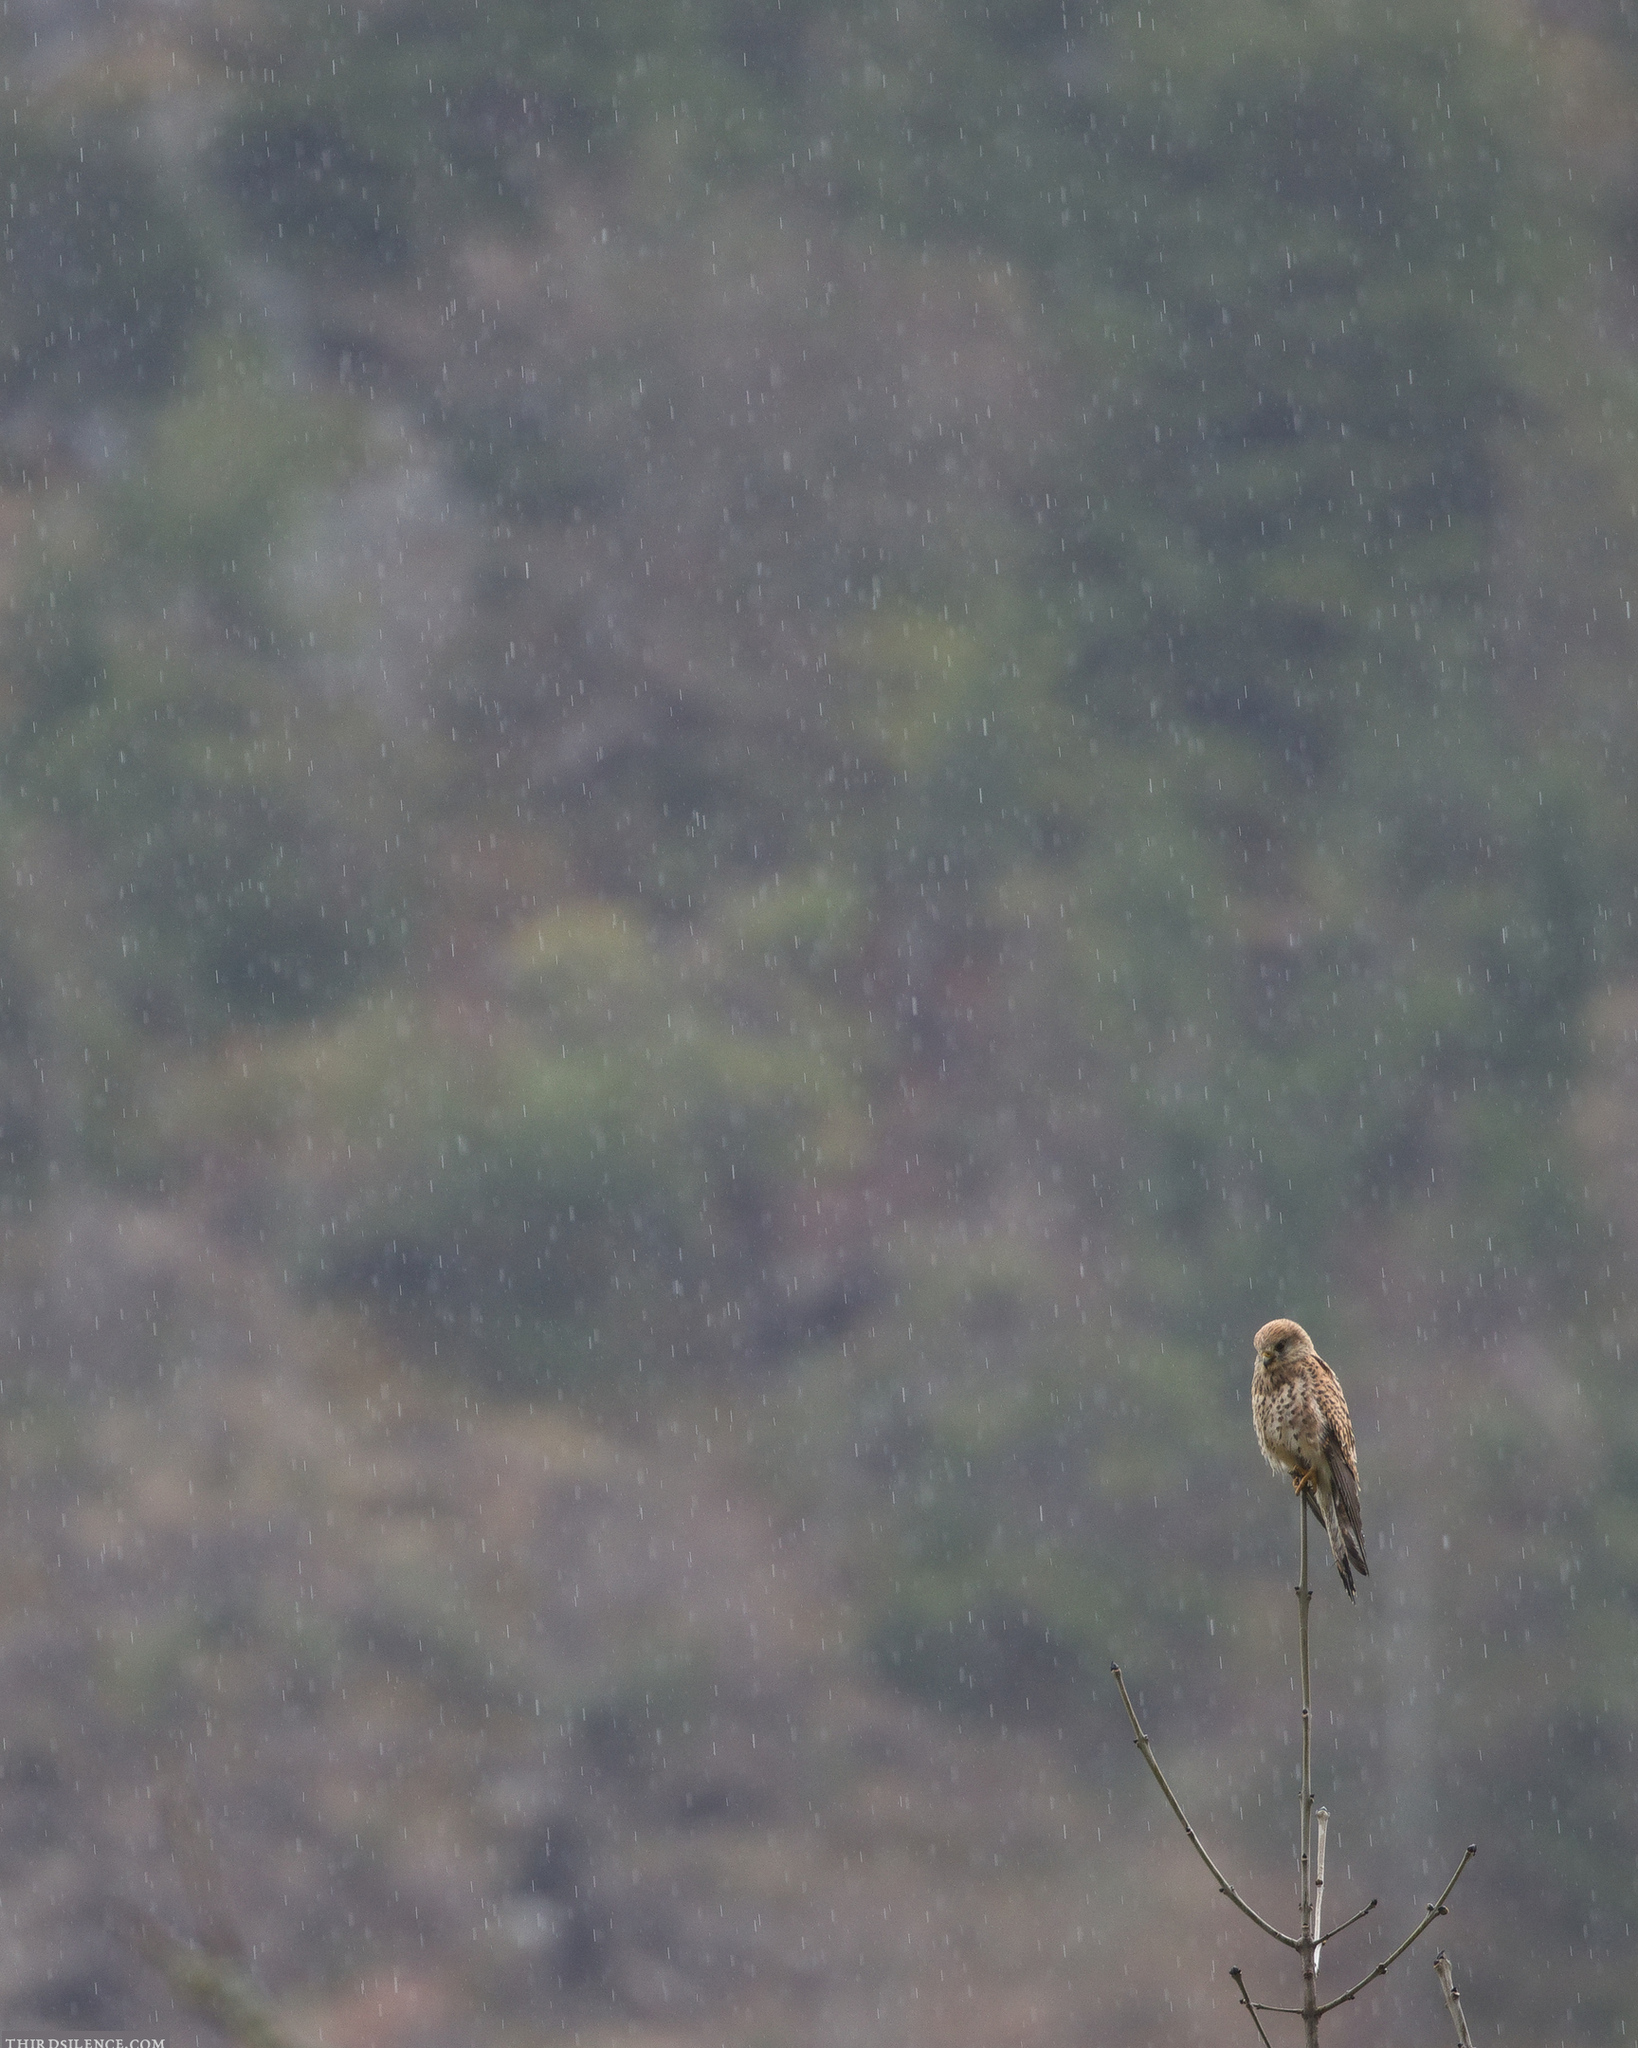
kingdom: Animalia
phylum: Chordata
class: Aves
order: Falconiformes
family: Falconidae
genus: Falco
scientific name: Falco tinnunculus
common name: Common kestrel
